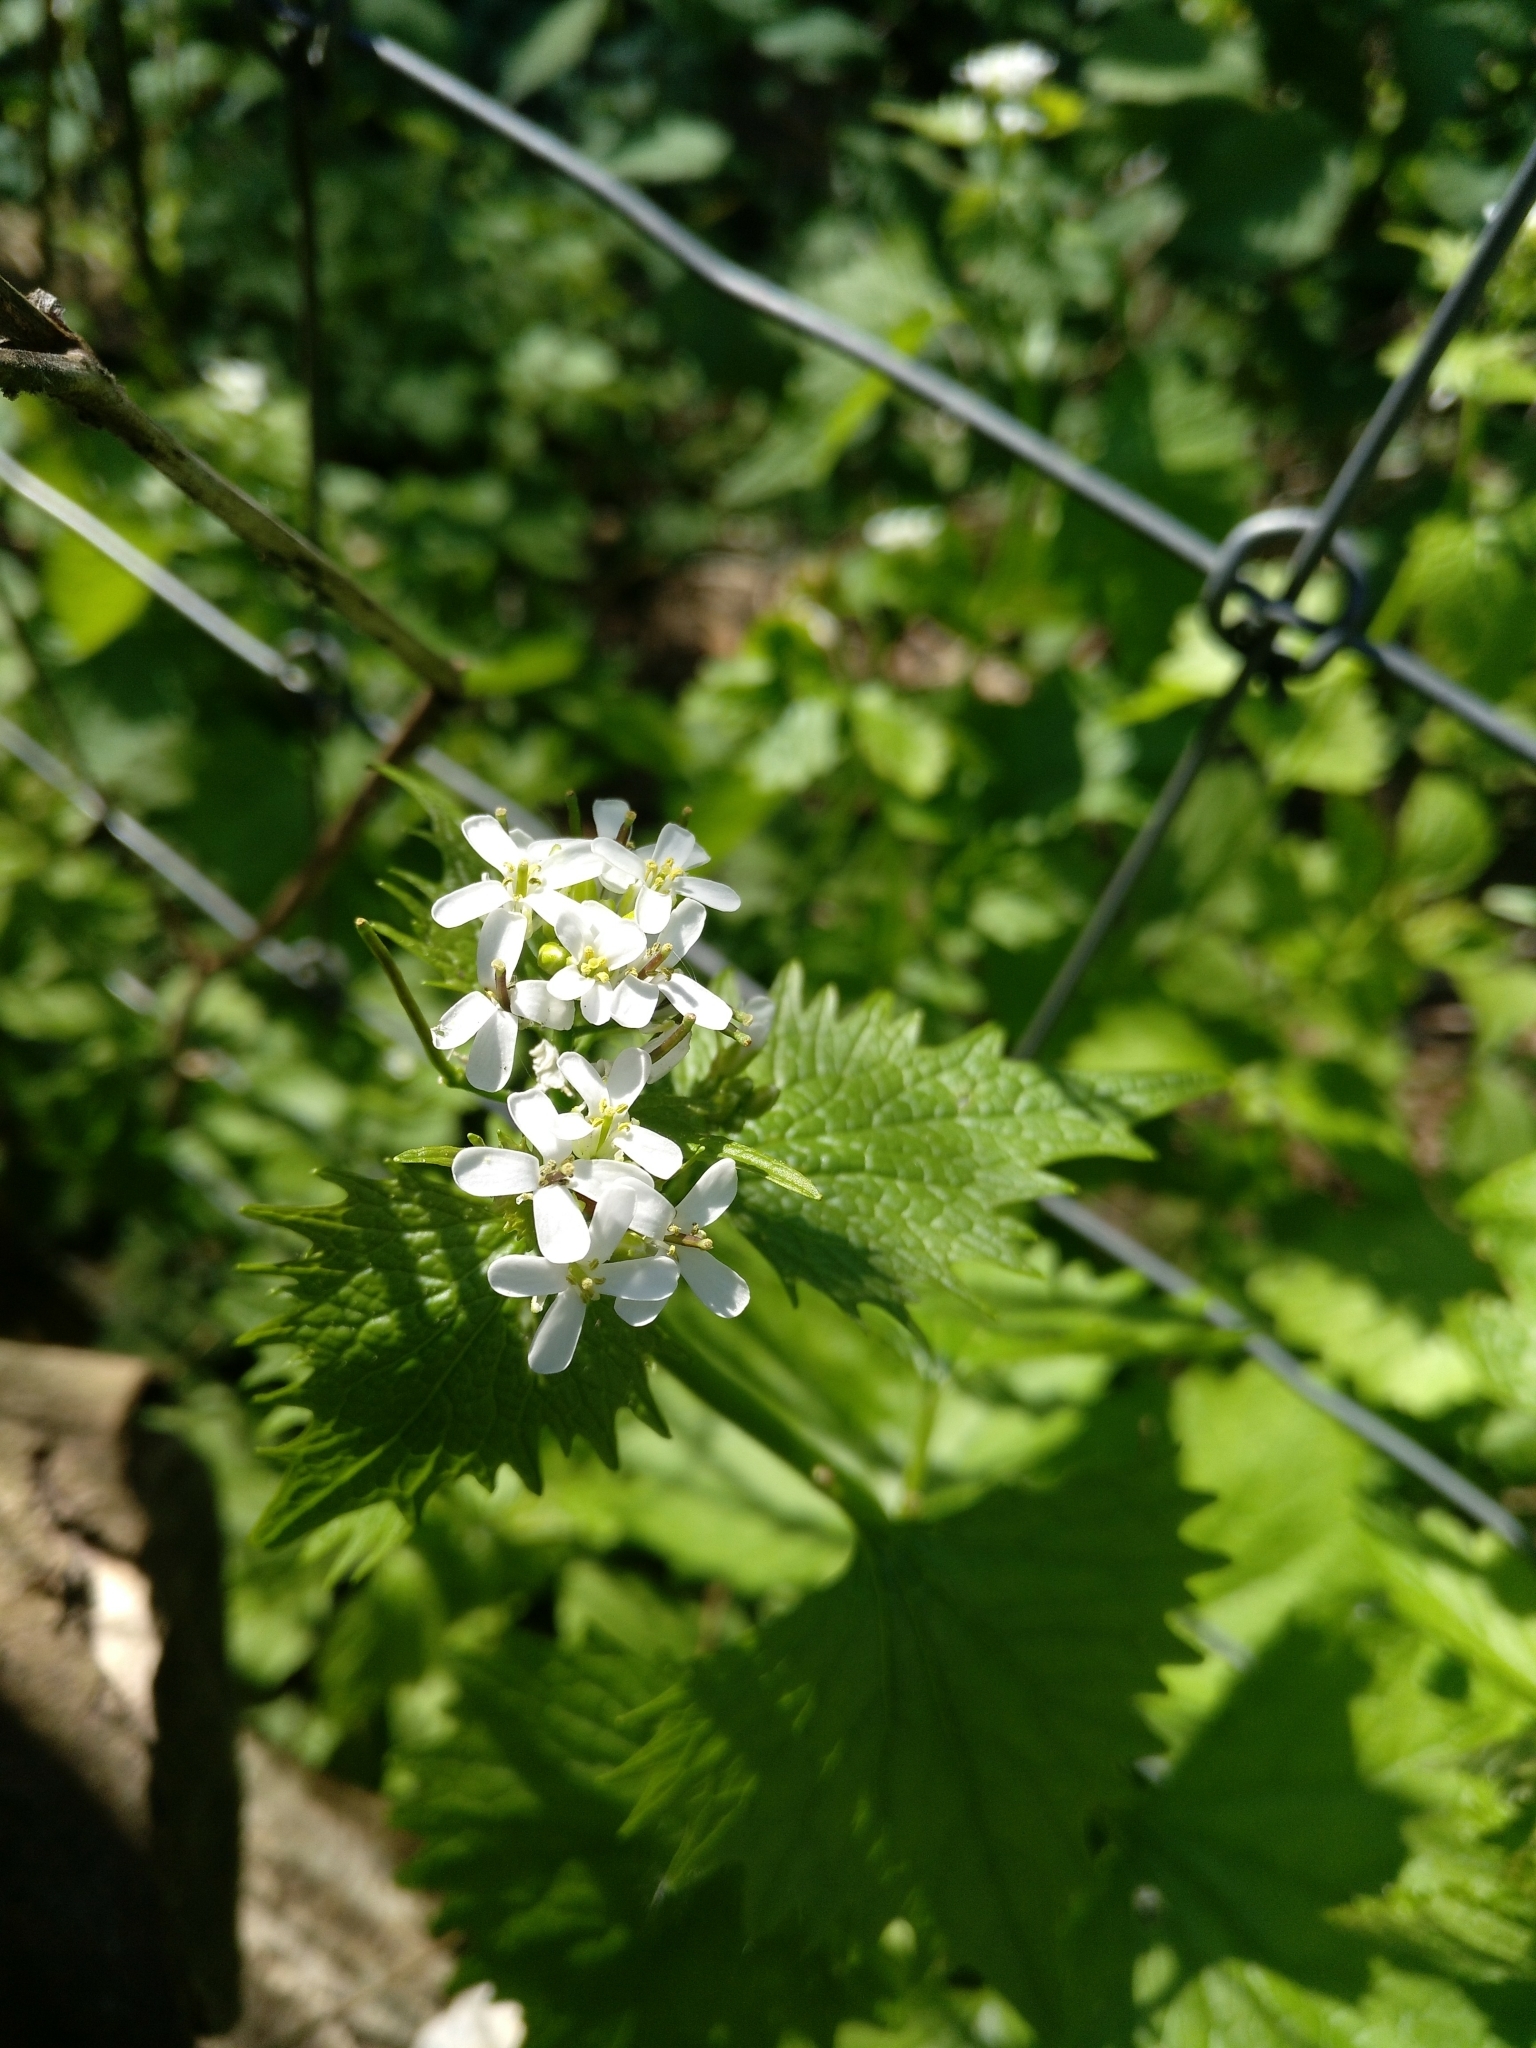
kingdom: Plantae
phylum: Tracheophyta
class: Magnoliopsida
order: Brassicales
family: Brassicaceae
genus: Alliaria
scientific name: Alliaria petiolata
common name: Garlic mustard
